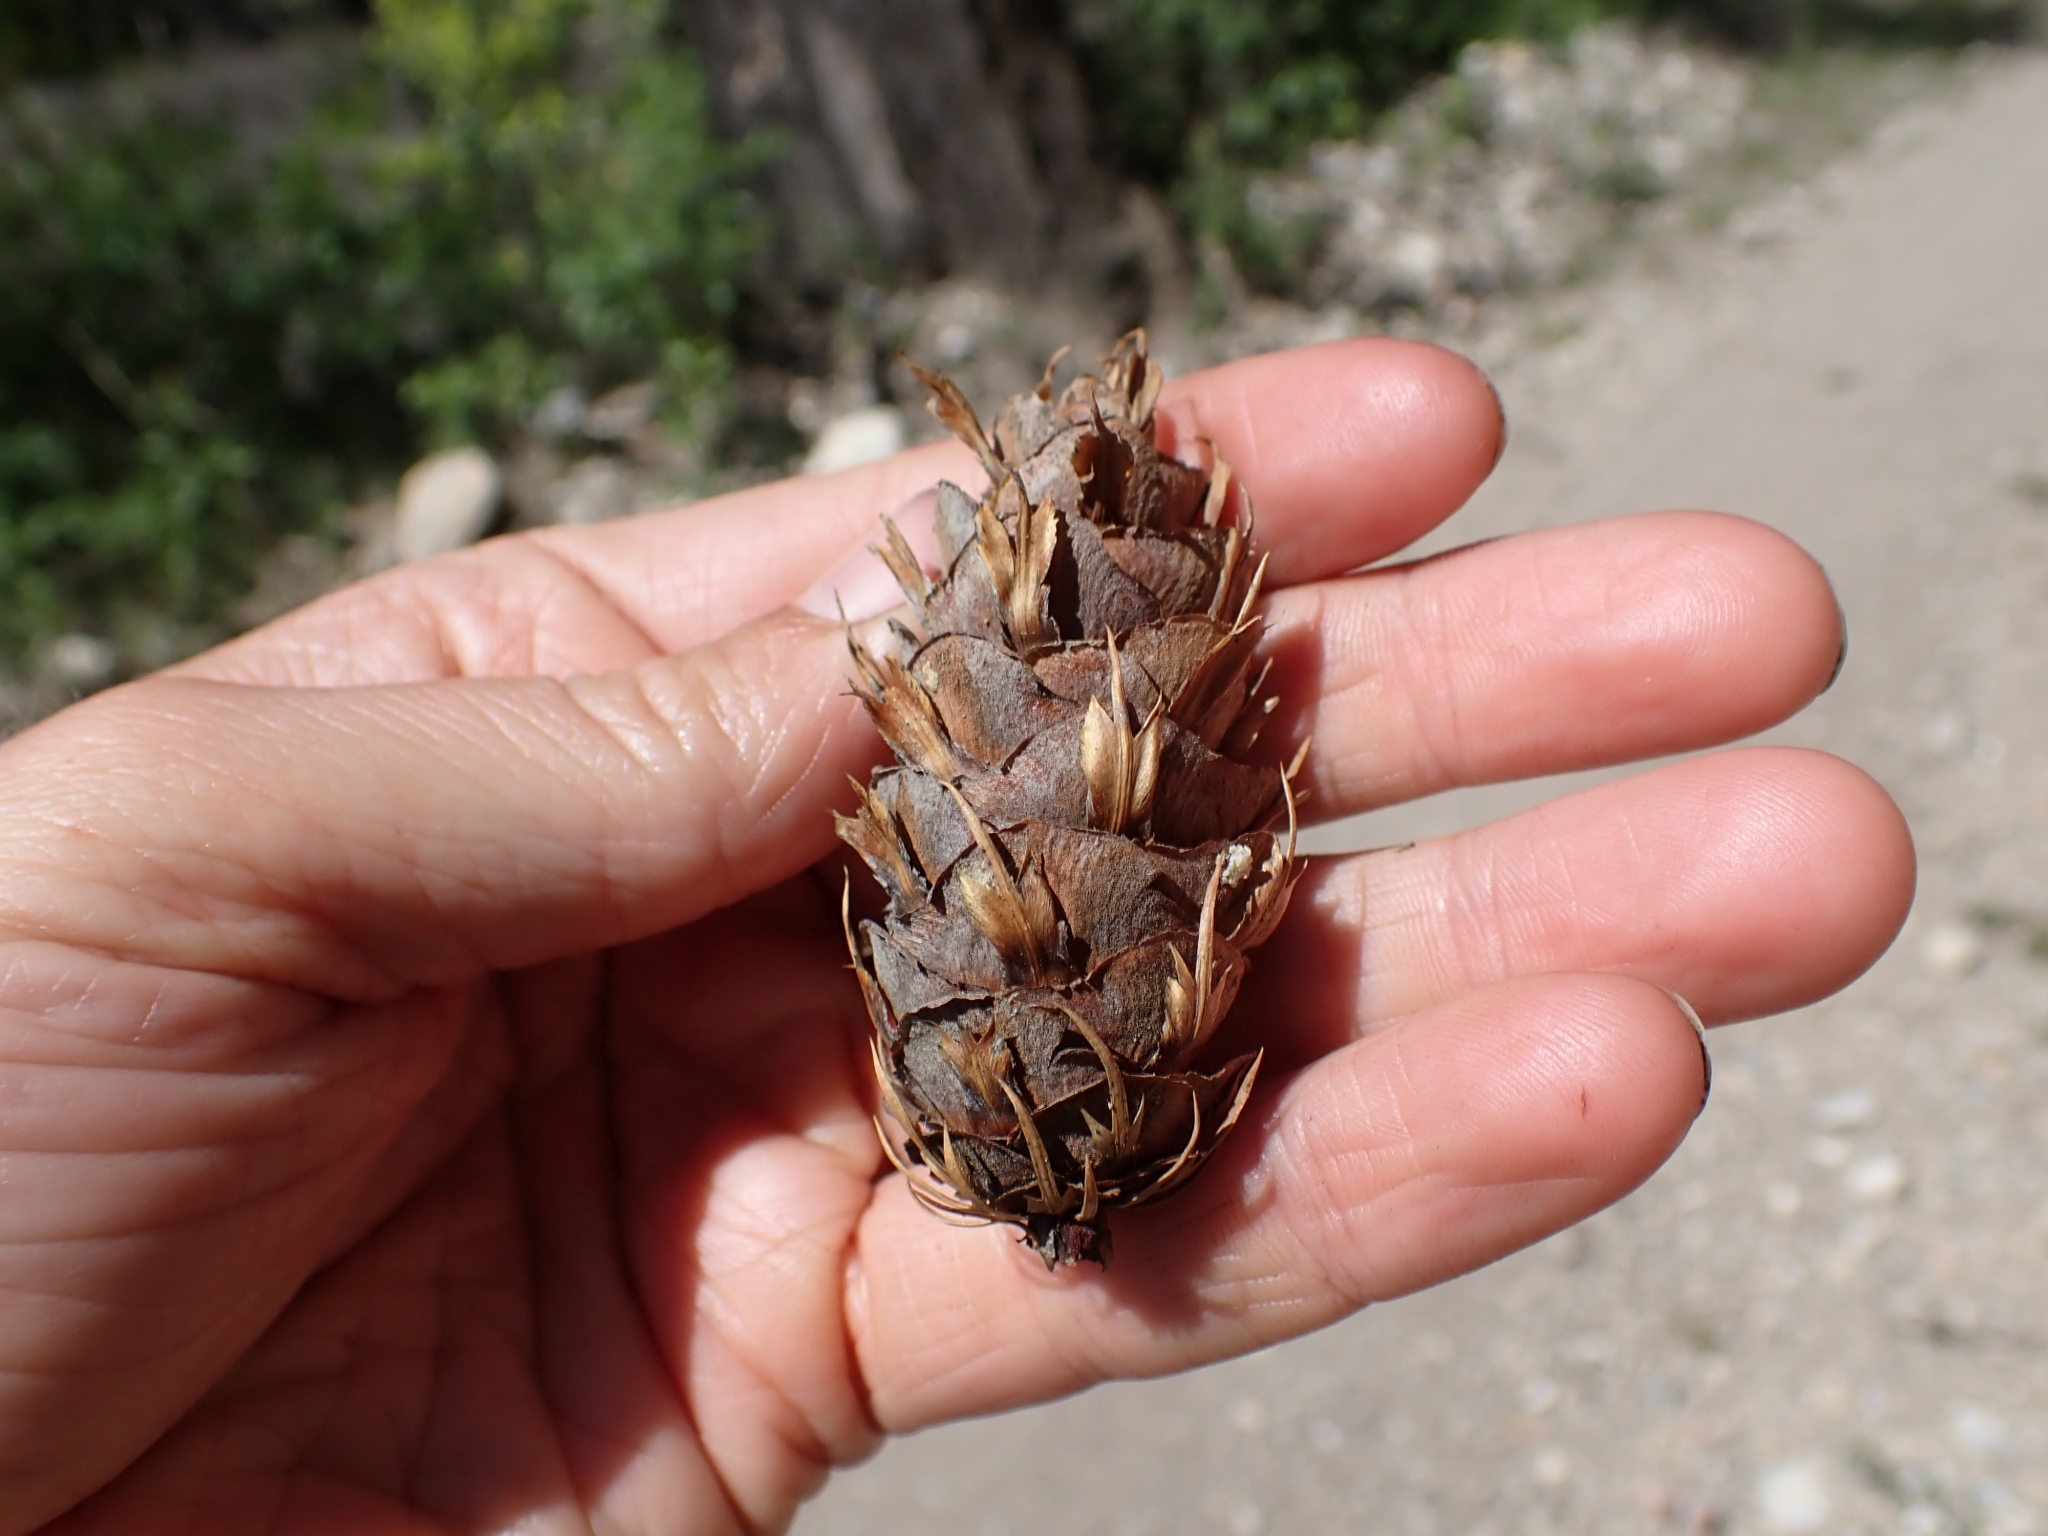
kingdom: Plantae
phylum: Tracheophyta
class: Pinopsida
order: Pinales
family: Pinaceae
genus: Pseudotsuga
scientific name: Pseudotsuga menziesii
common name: Douglas fir
